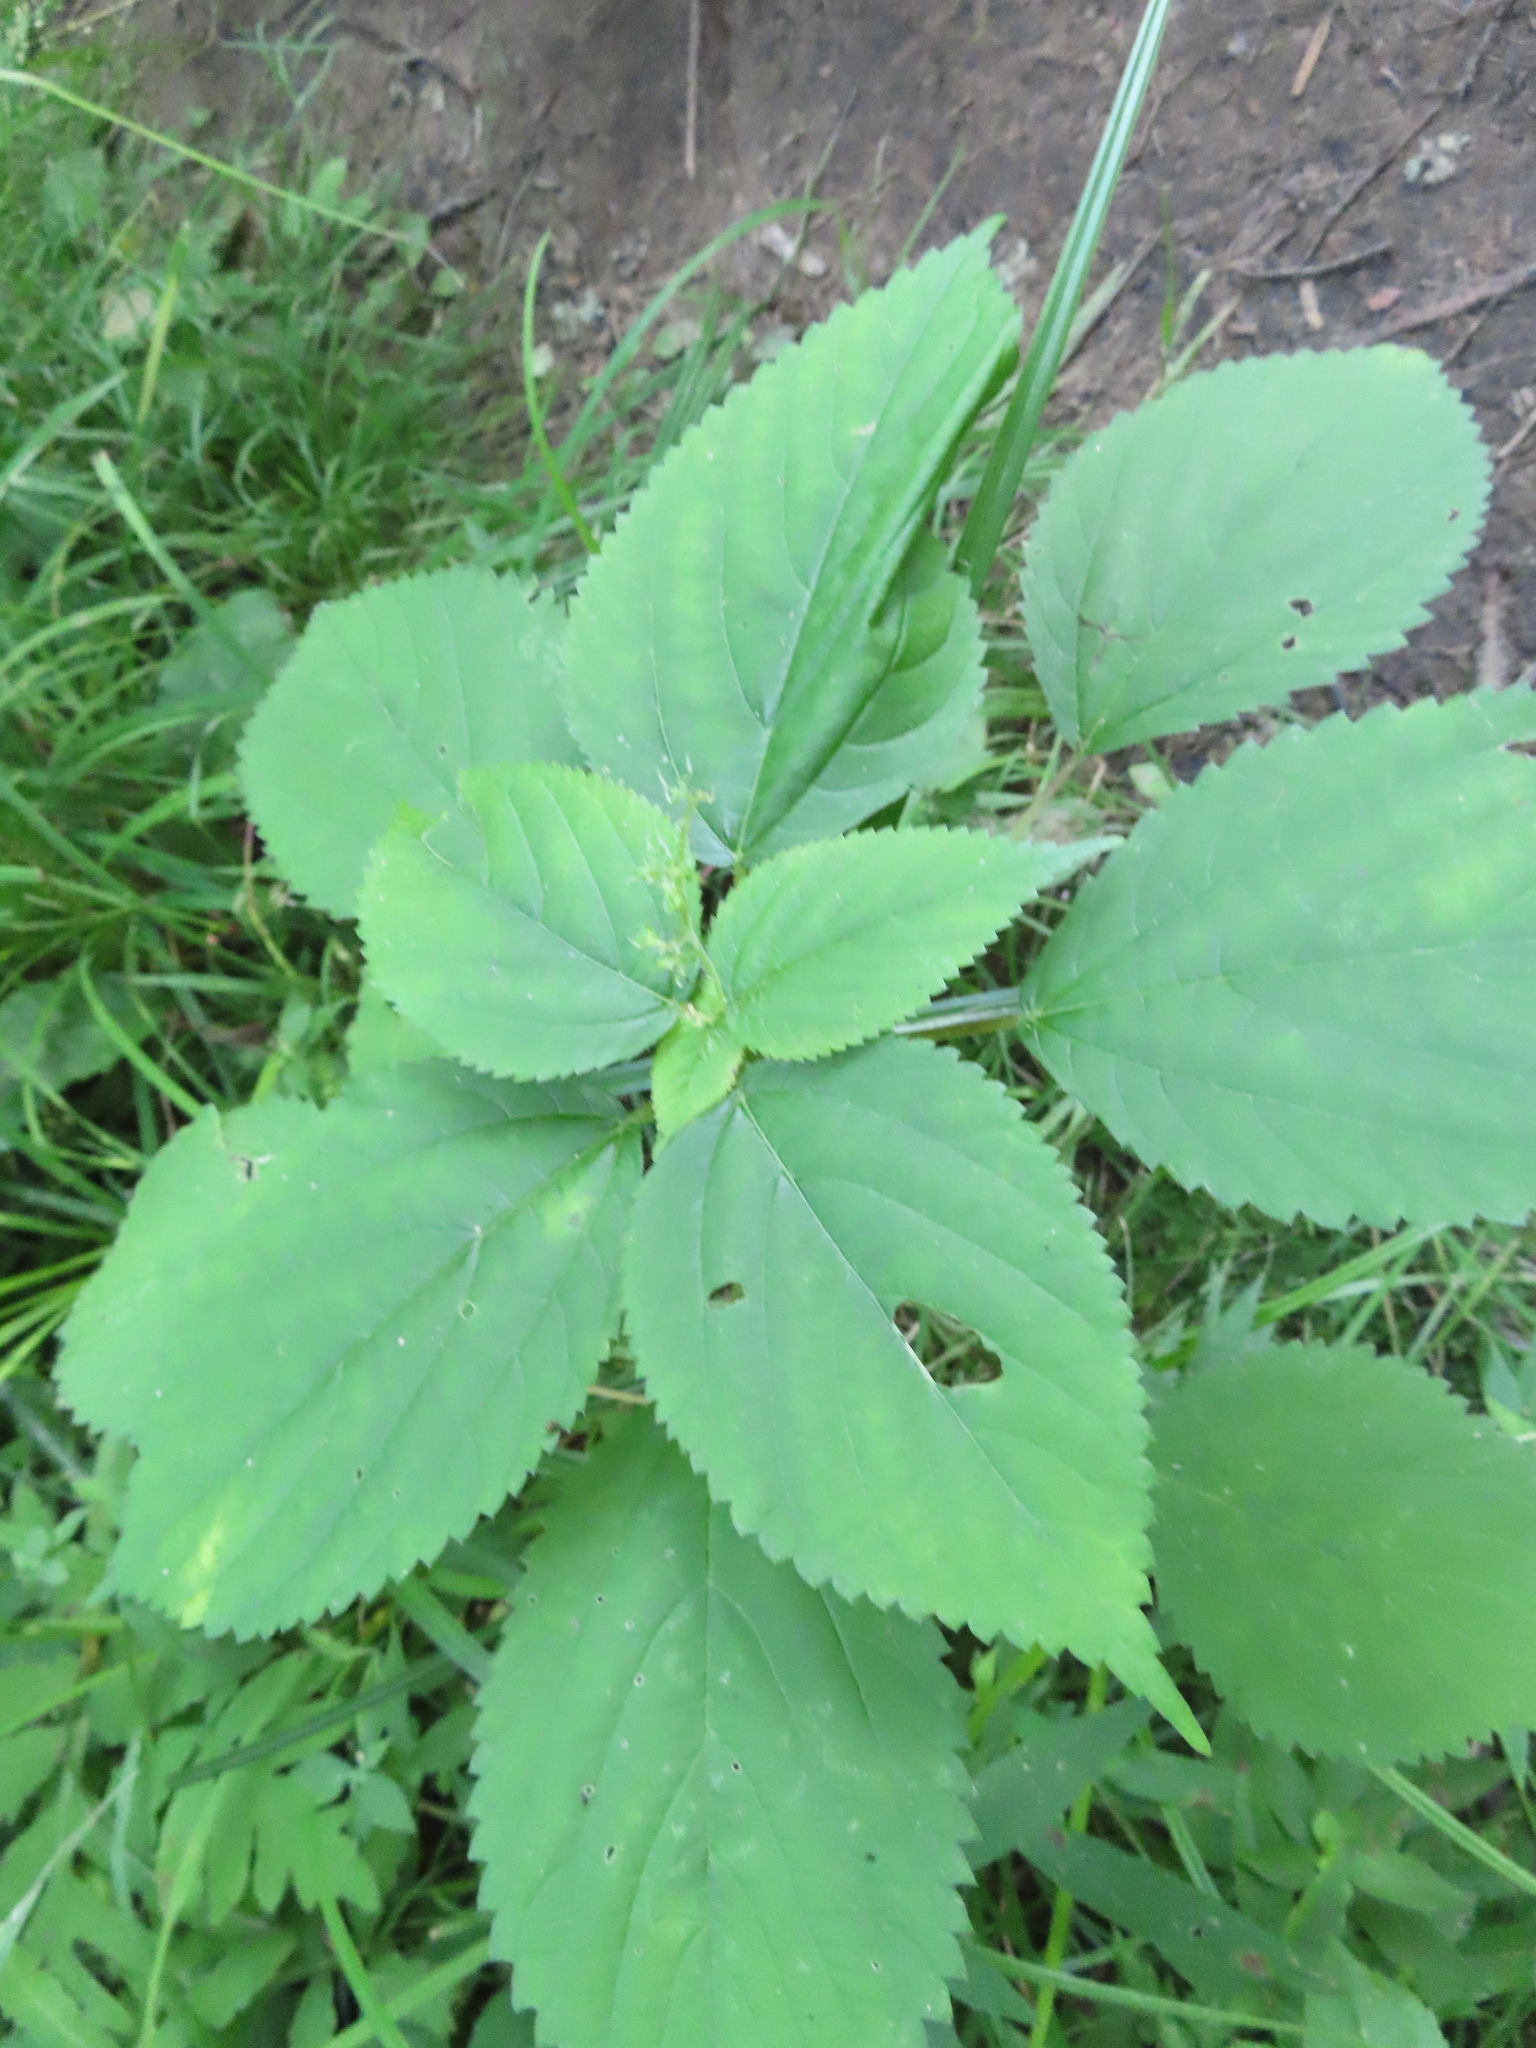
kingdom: Plantae
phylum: Tracheophyta
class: Magnoliopsida
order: Rosales
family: Urticaceae
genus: Laportea
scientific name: Laportea canadensis
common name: Canada nettle
